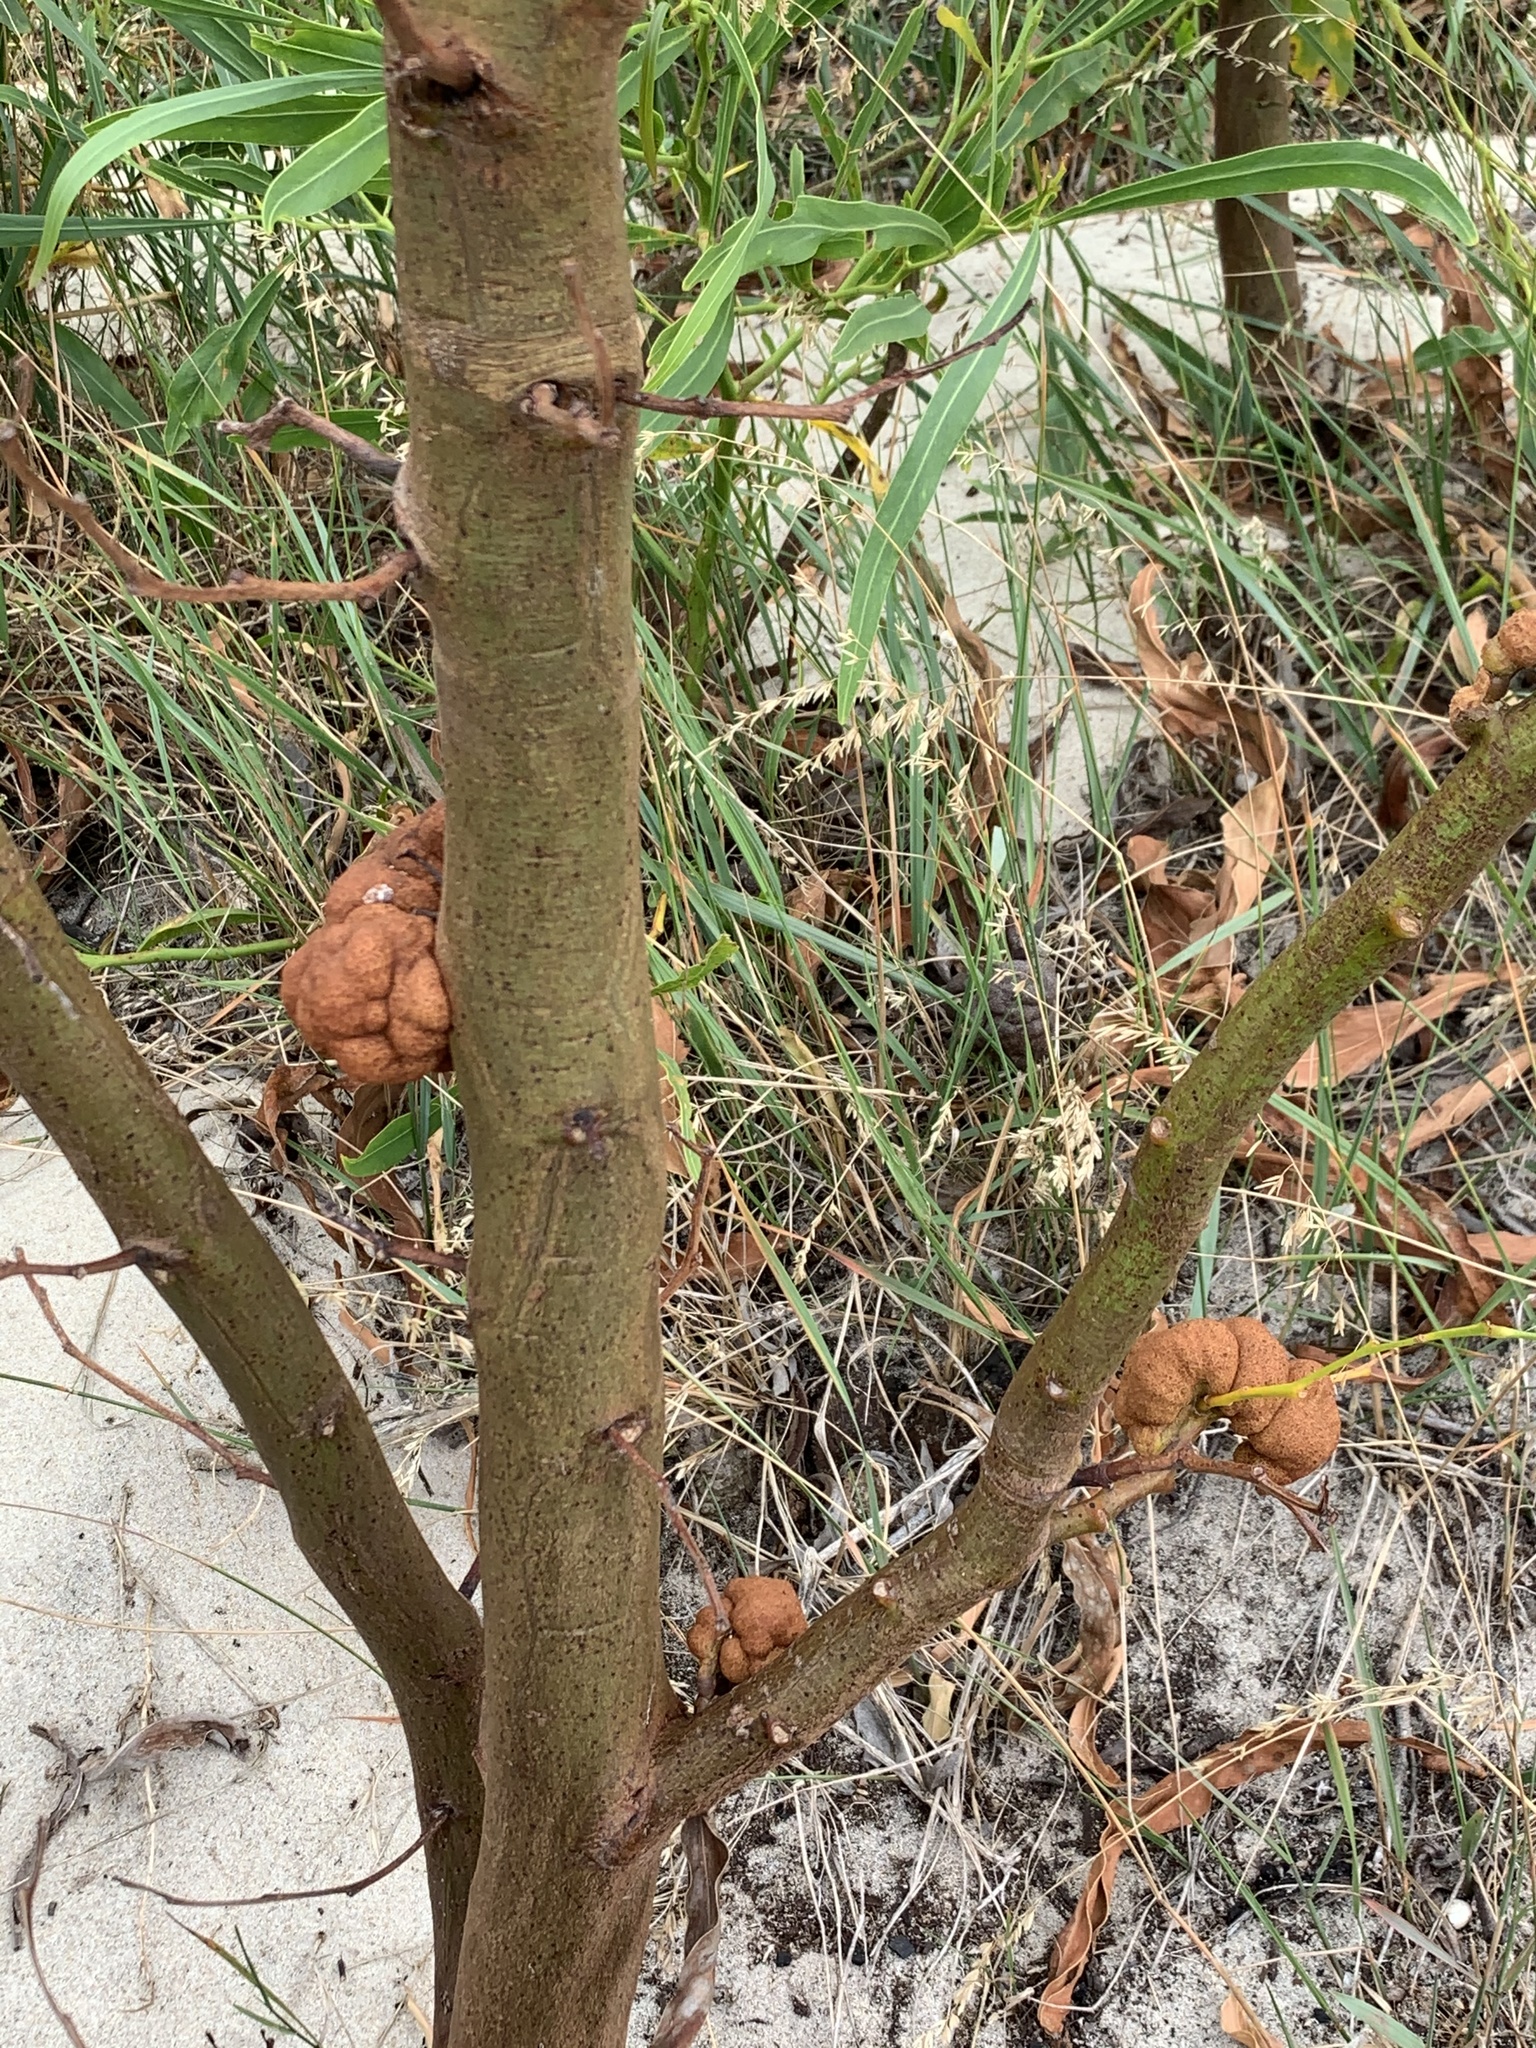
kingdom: Fungi
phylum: Basidiomycota
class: Pucciniomycetes
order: Pucciniales
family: Uromycladiaceae
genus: Uromycladium
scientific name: Uromycladium morrisii
